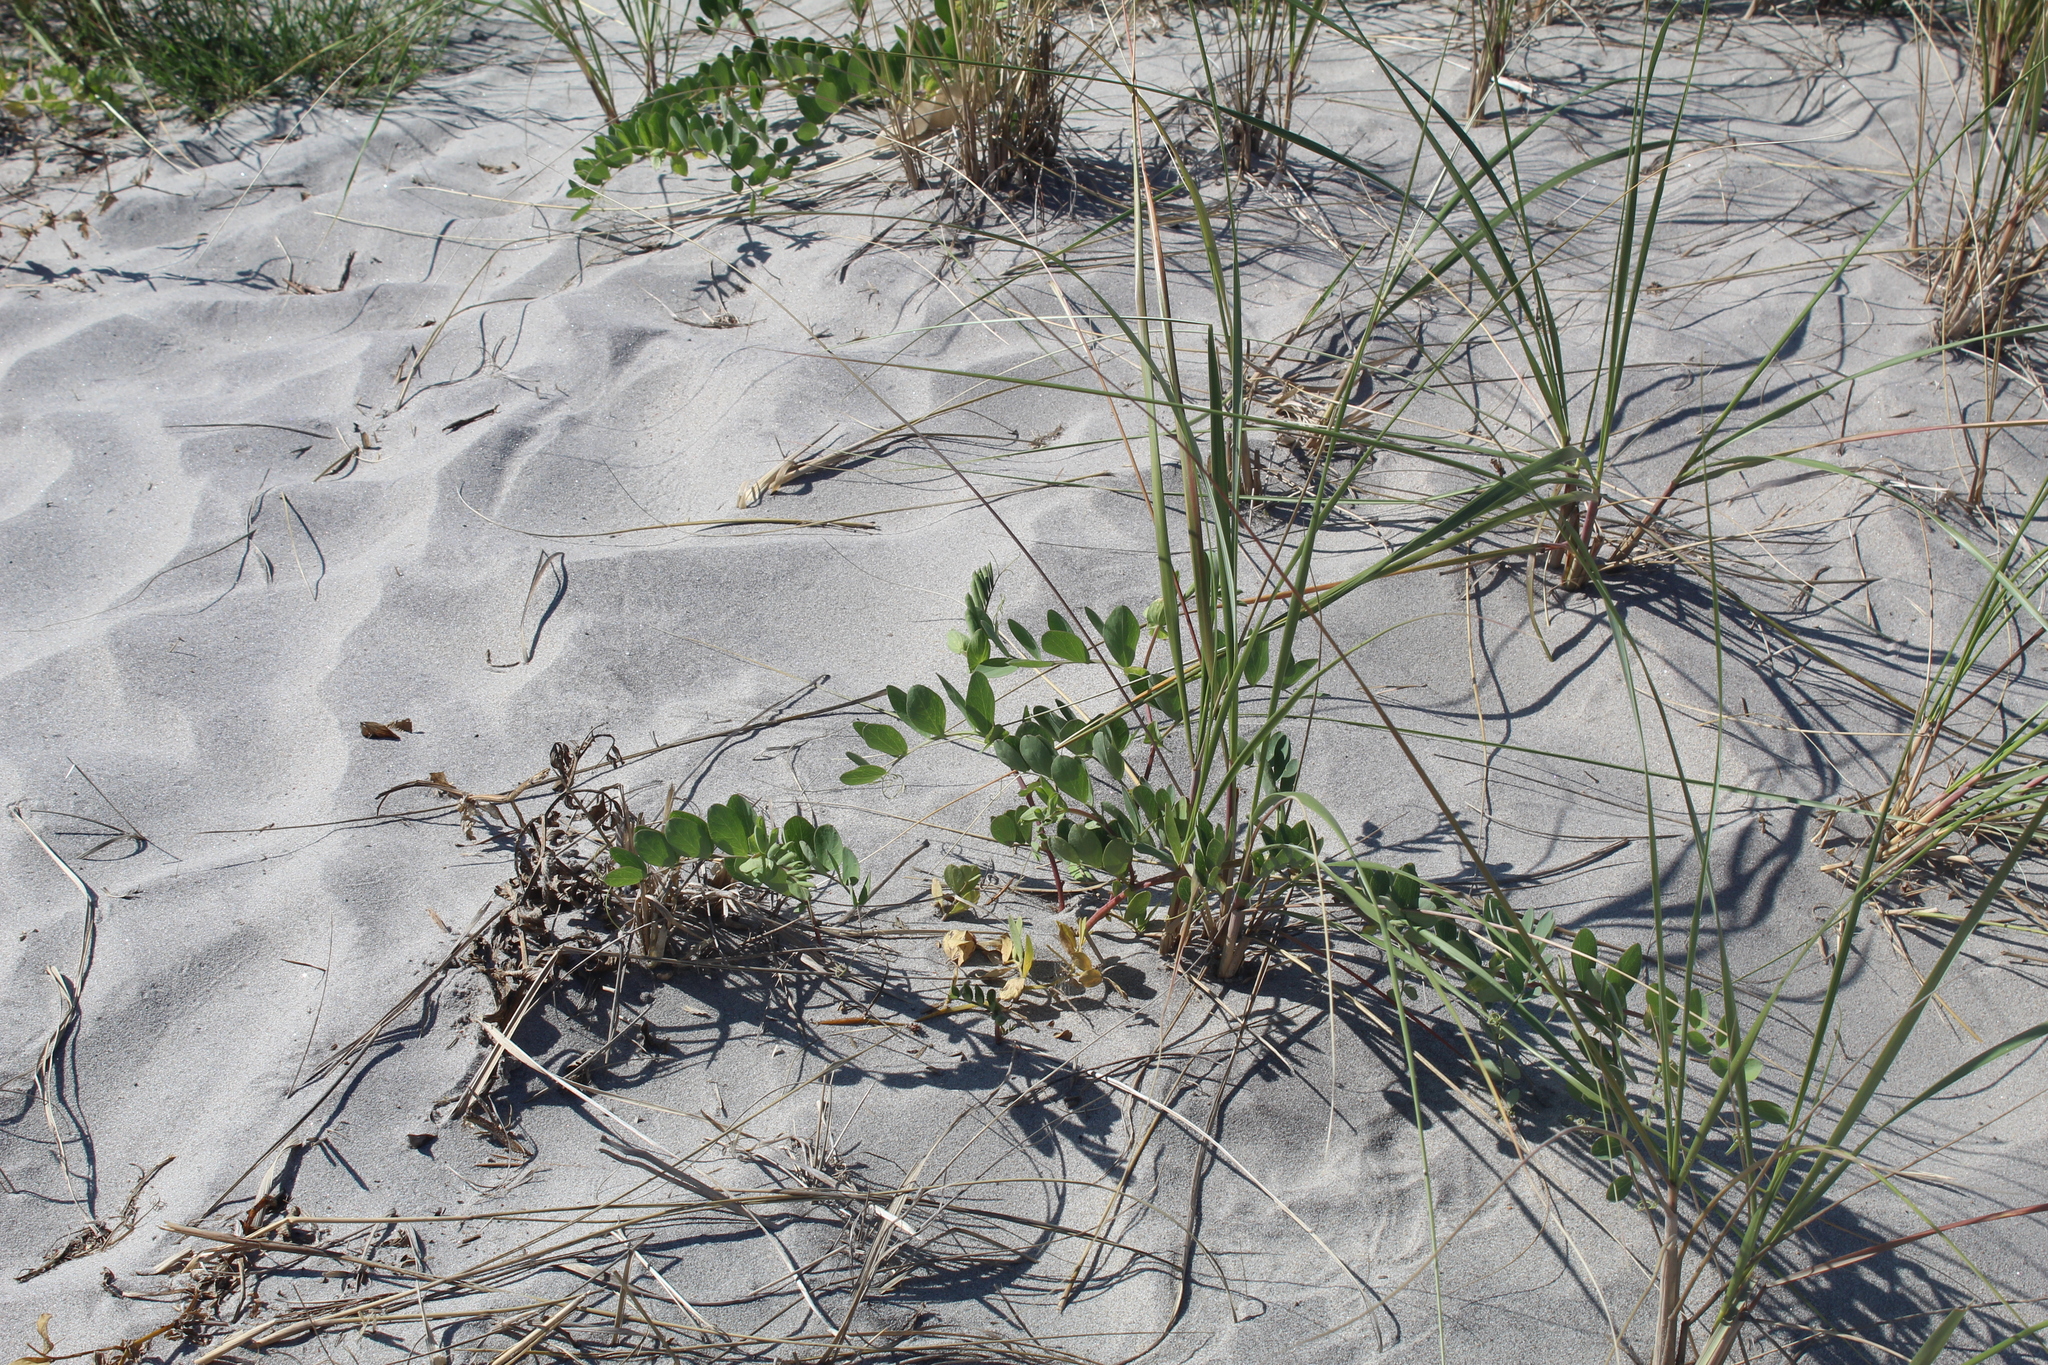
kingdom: Plantae
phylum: Tracheophyta
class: Magnoliopsida
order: Fabales
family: Fabaceae
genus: Lathyrus
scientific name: Lathyrus japonicus
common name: Sea pea
